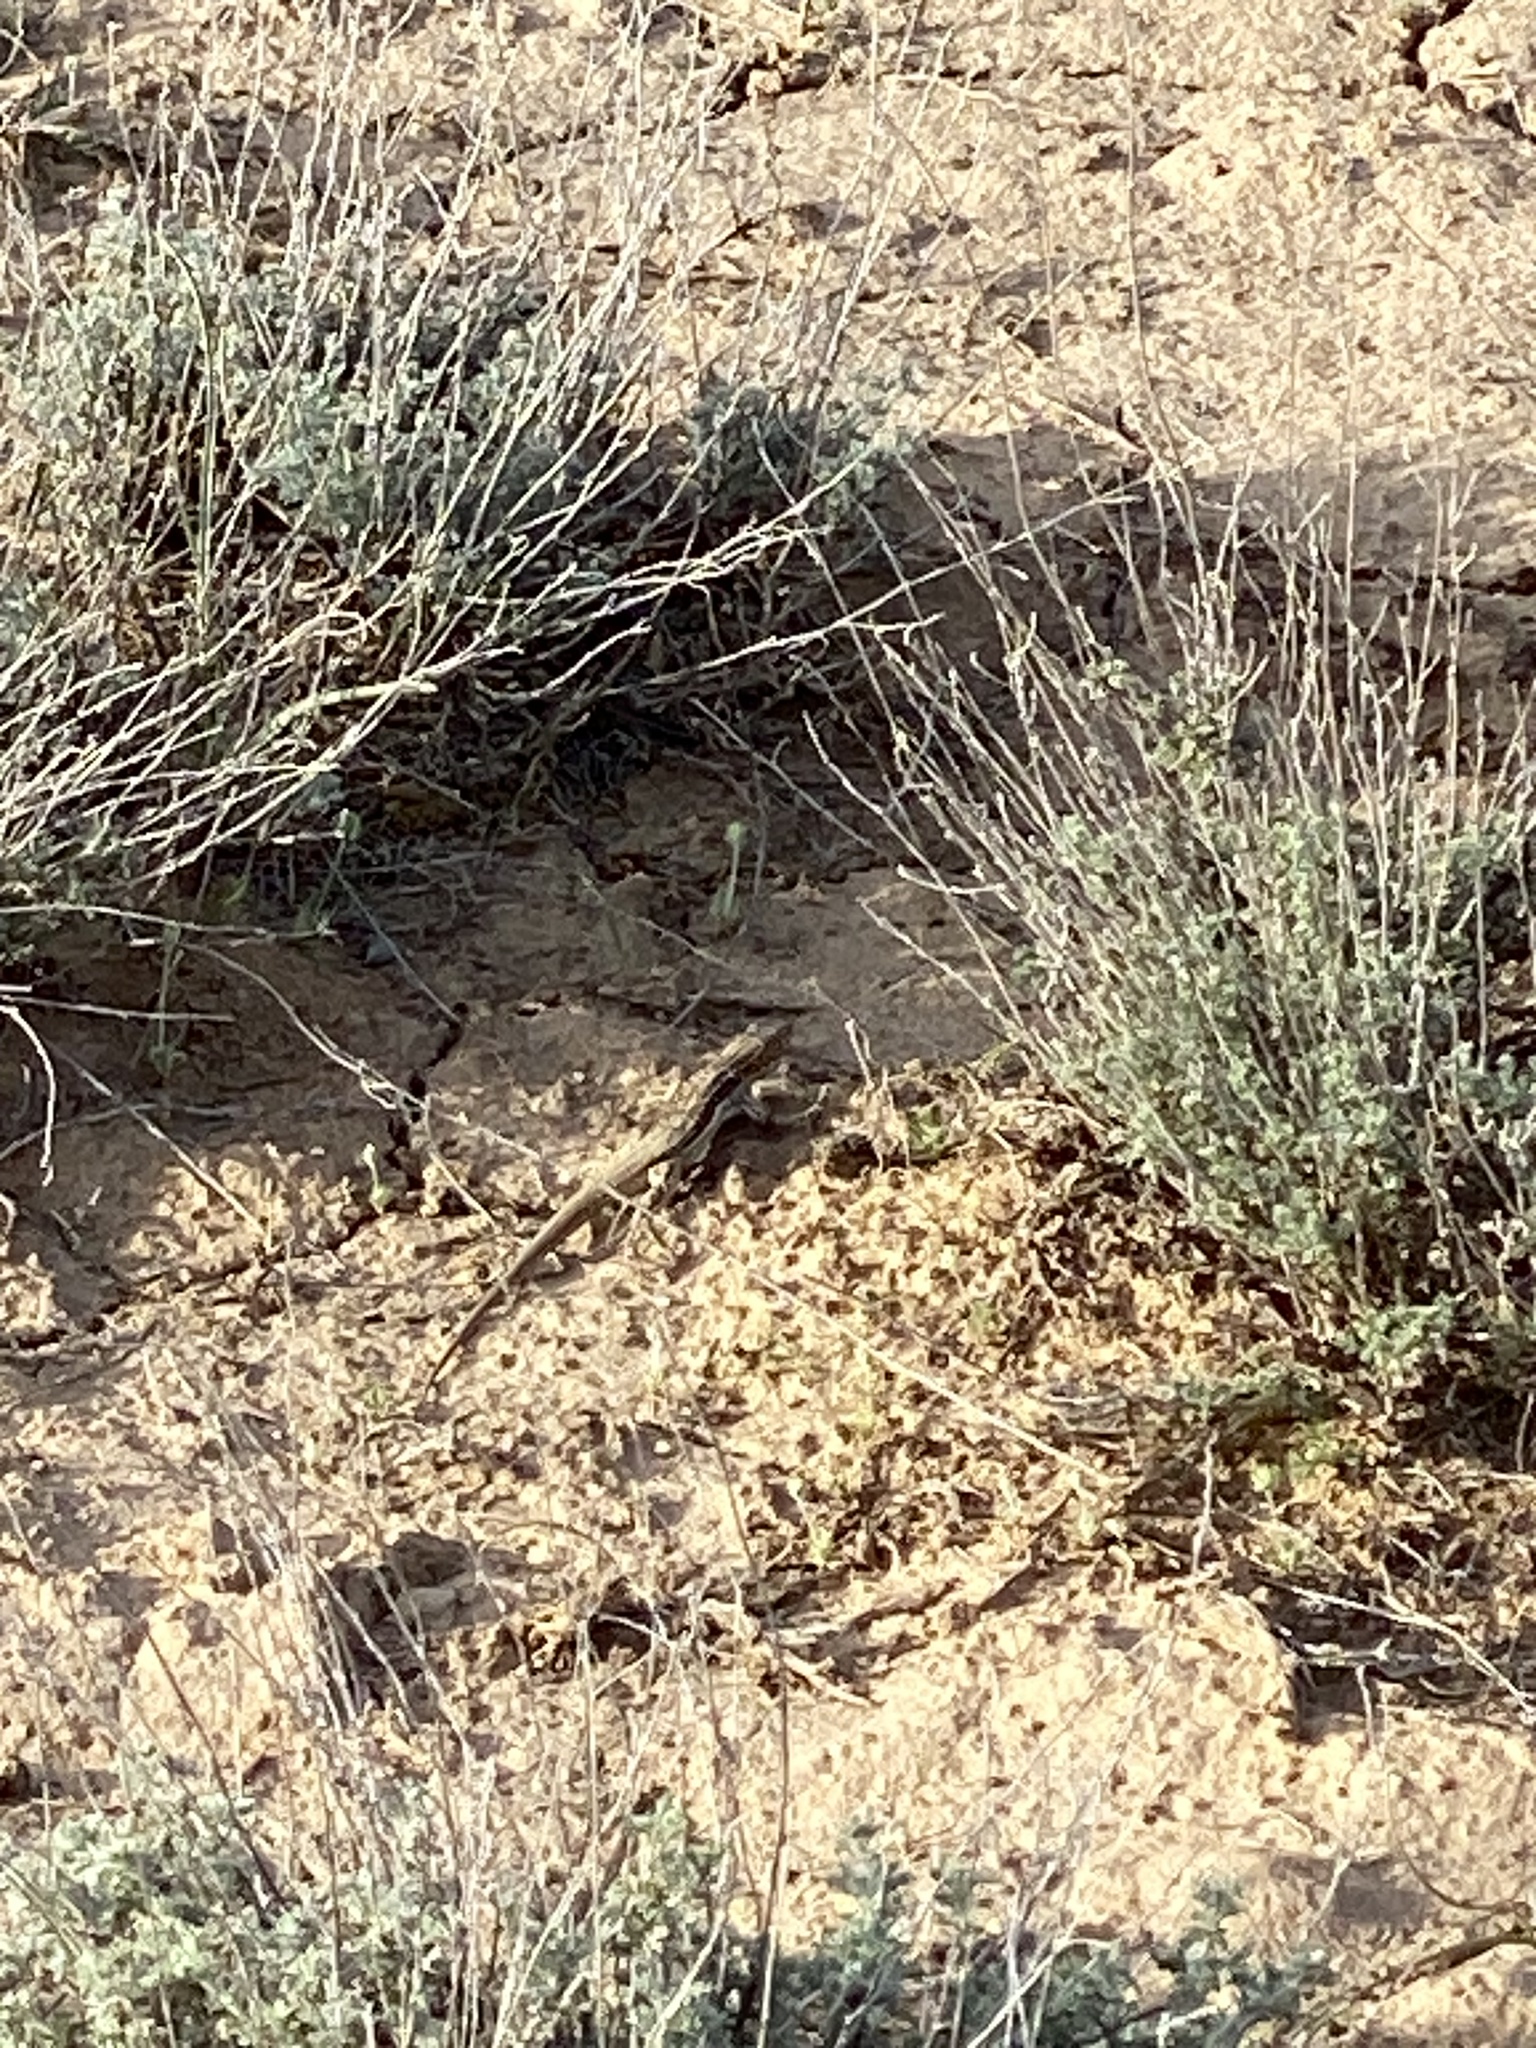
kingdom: Animalia
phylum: Chordata
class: Squamata
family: Lacertidae
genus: Eremias
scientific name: Eremias velox
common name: Central asian racerunner
